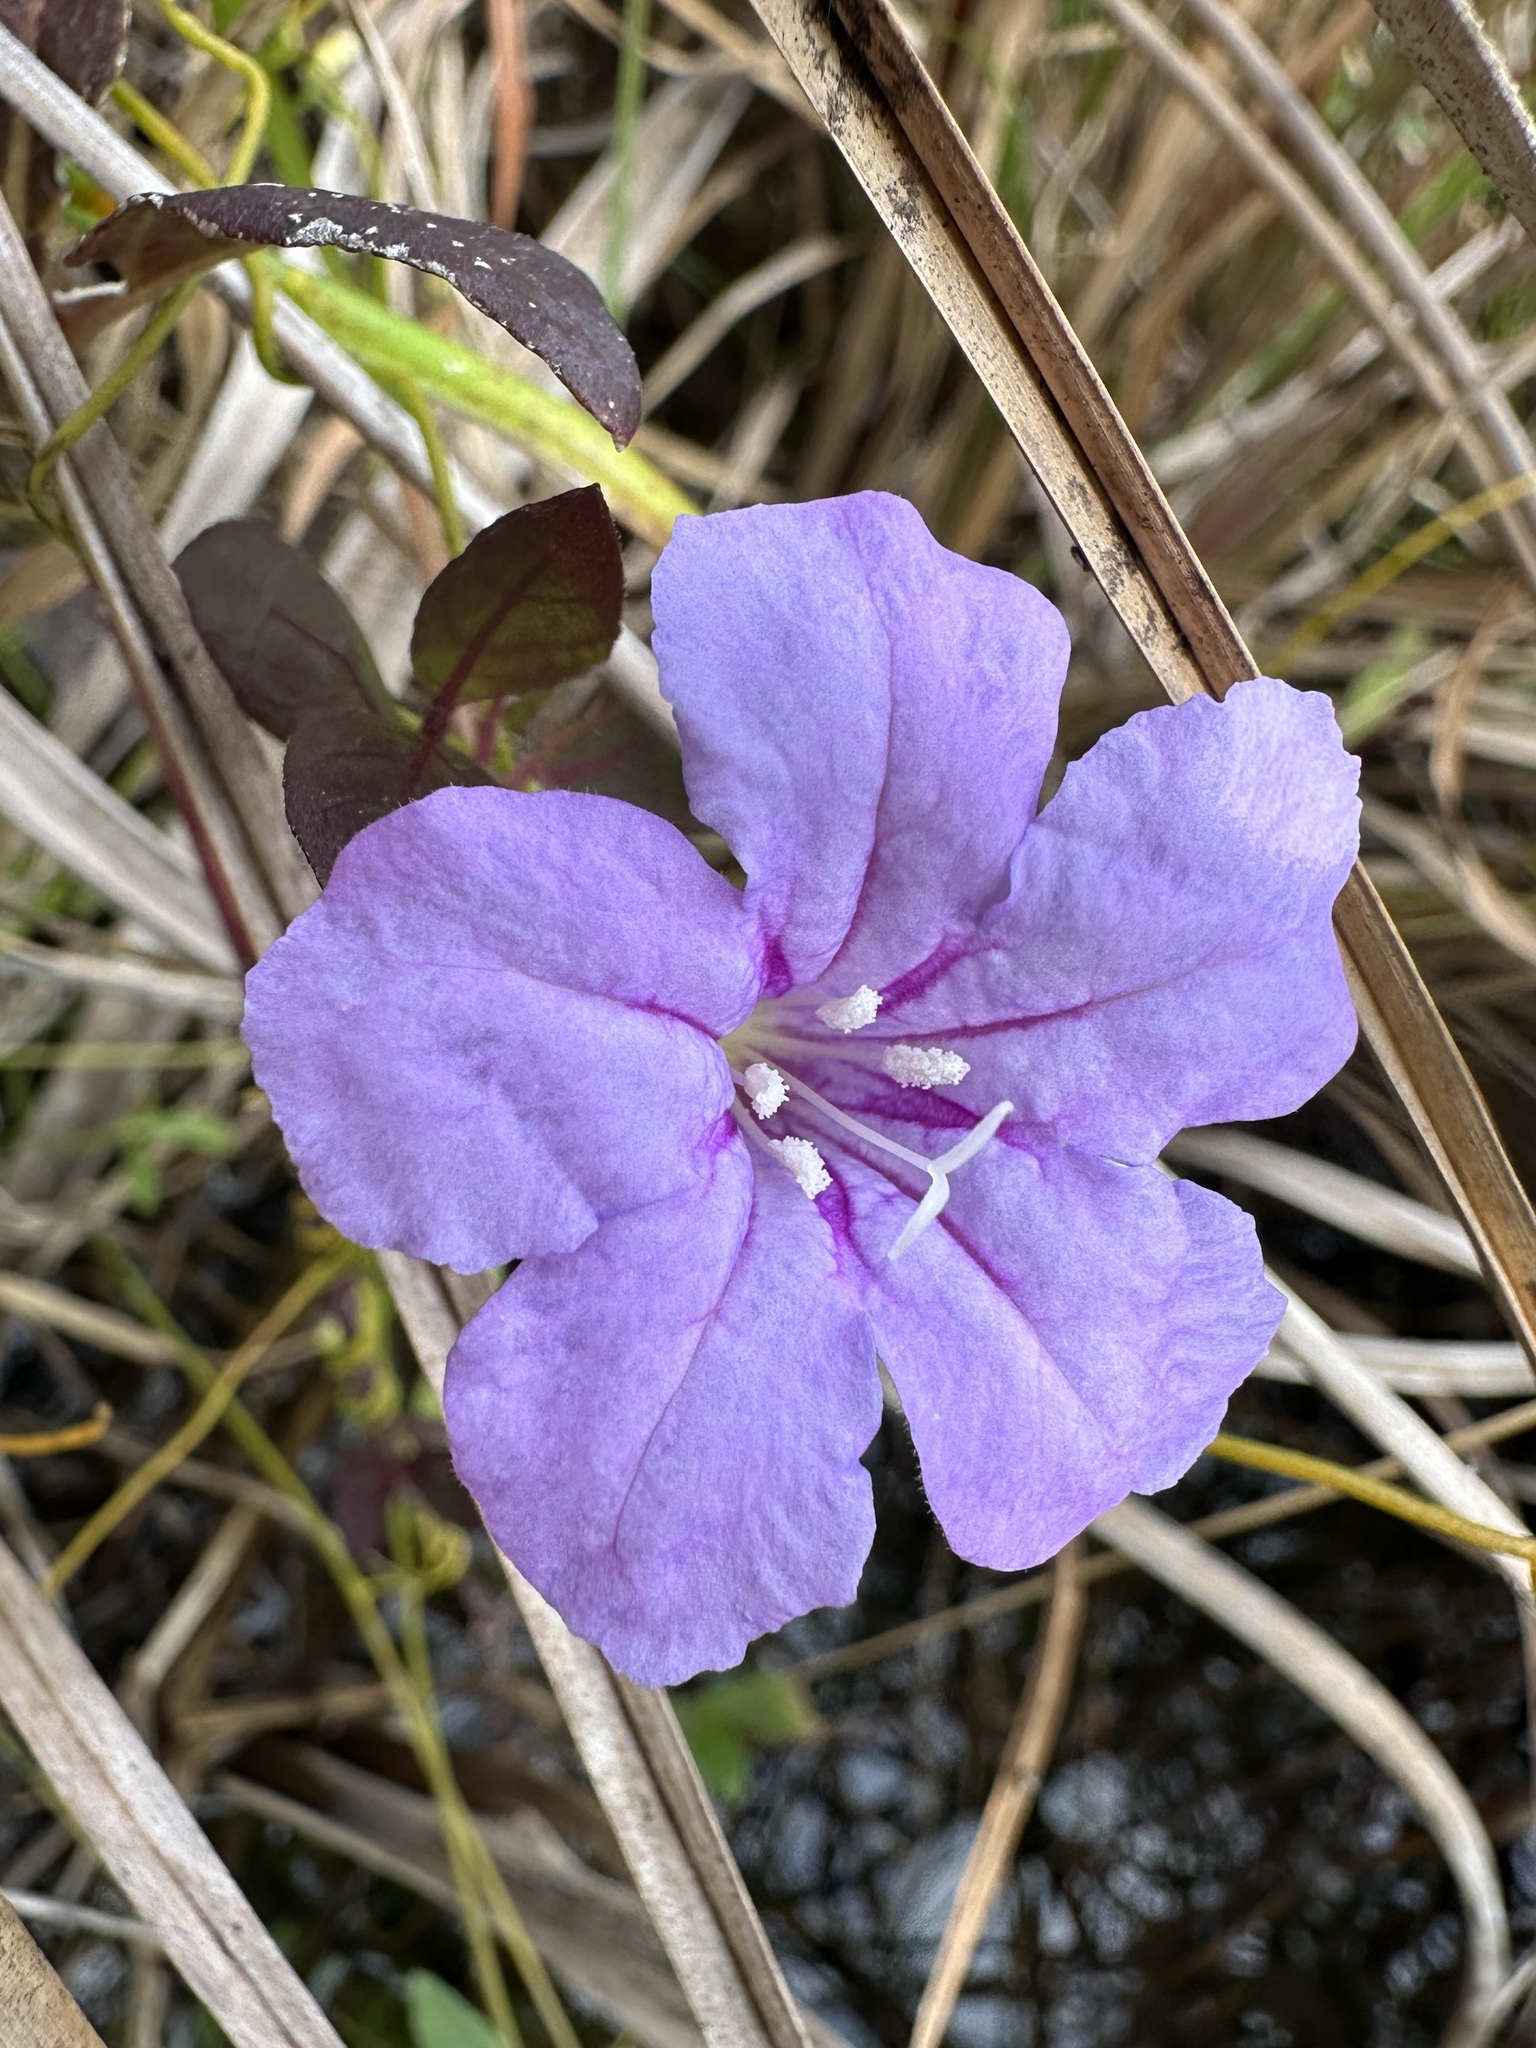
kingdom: Plantae
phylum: Tracheophyta
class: Magnoliopsida
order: Lamiales
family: Acanthaceae
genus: Ruellia
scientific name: Ruellia caroliniensis
